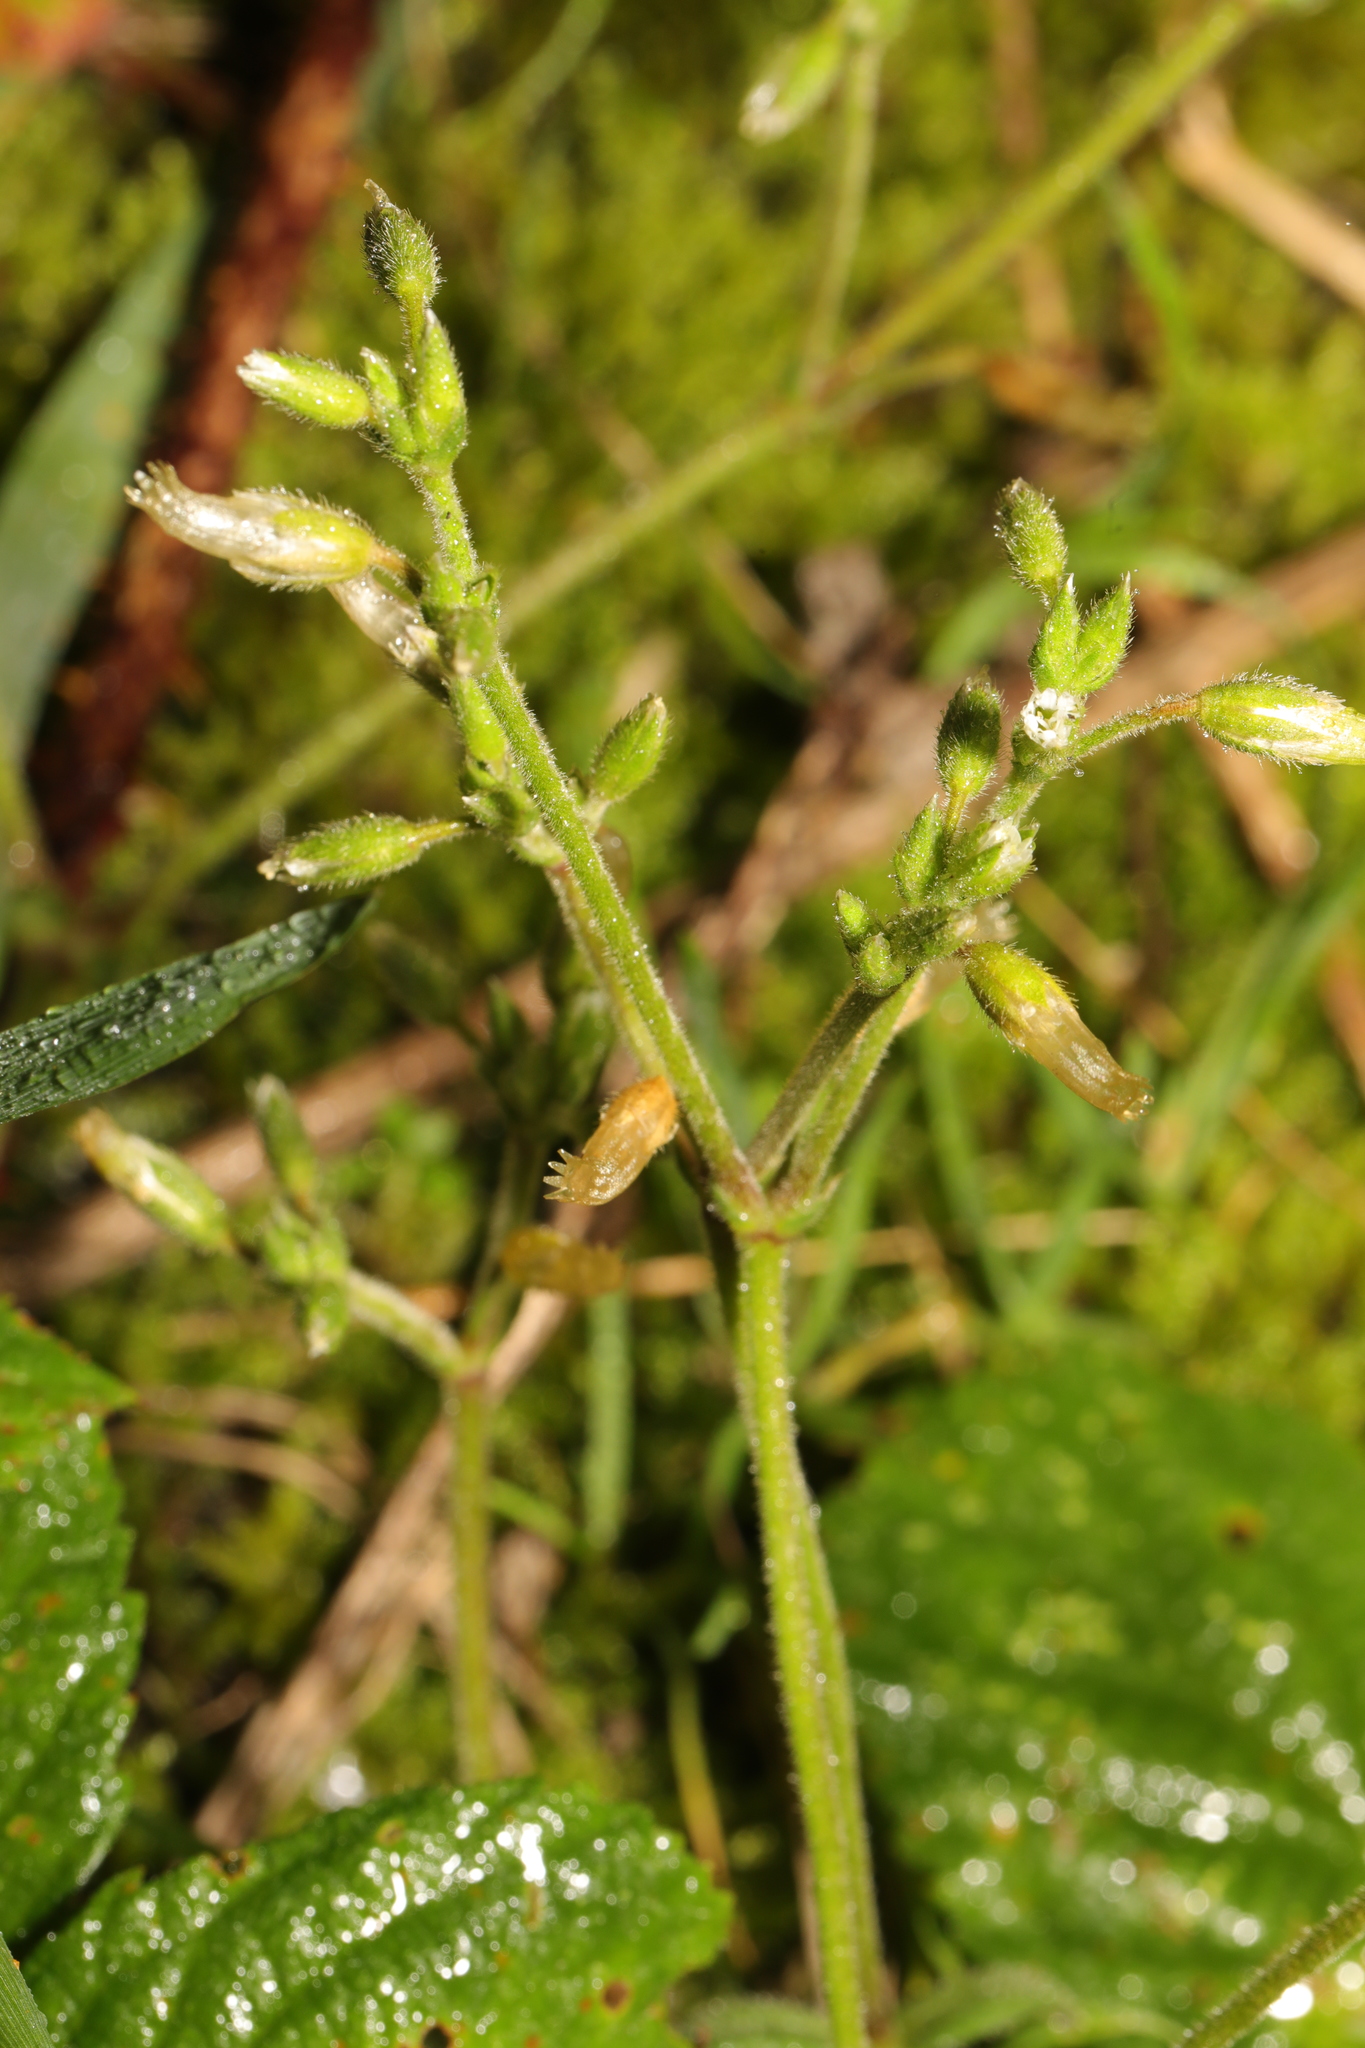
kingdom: Plantae
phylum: Tracheophyta
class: Magnoliopsida
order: Caryophyllales
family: Caryophyllaceae
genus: Cerastium
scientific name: Cerastium fontanum
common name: Common mouse-ear
